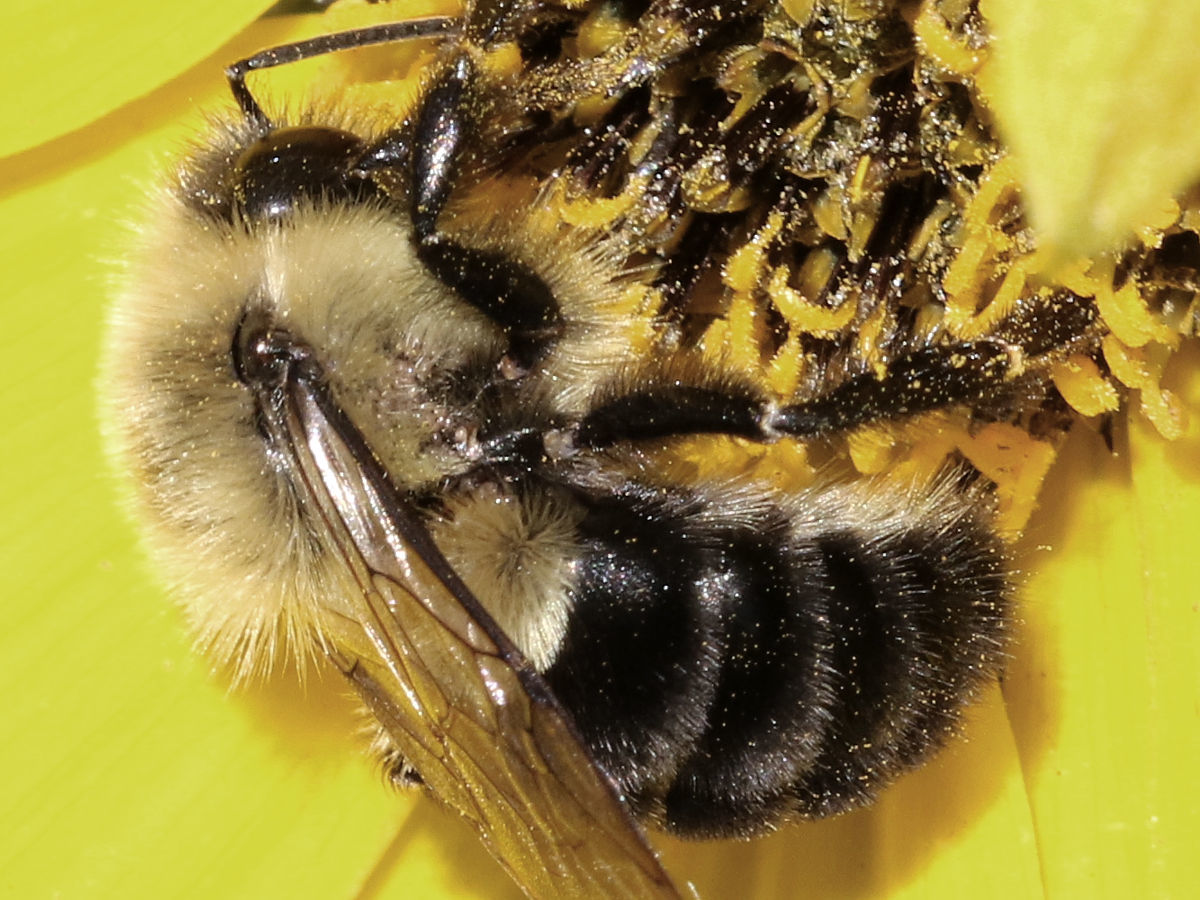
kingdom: Animalia
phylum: Arthropoda
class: Insecta
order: Hymenoptera
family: Apidae
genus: Bombus
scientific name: Bombus impatiens
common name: Common eastern bumble bee
